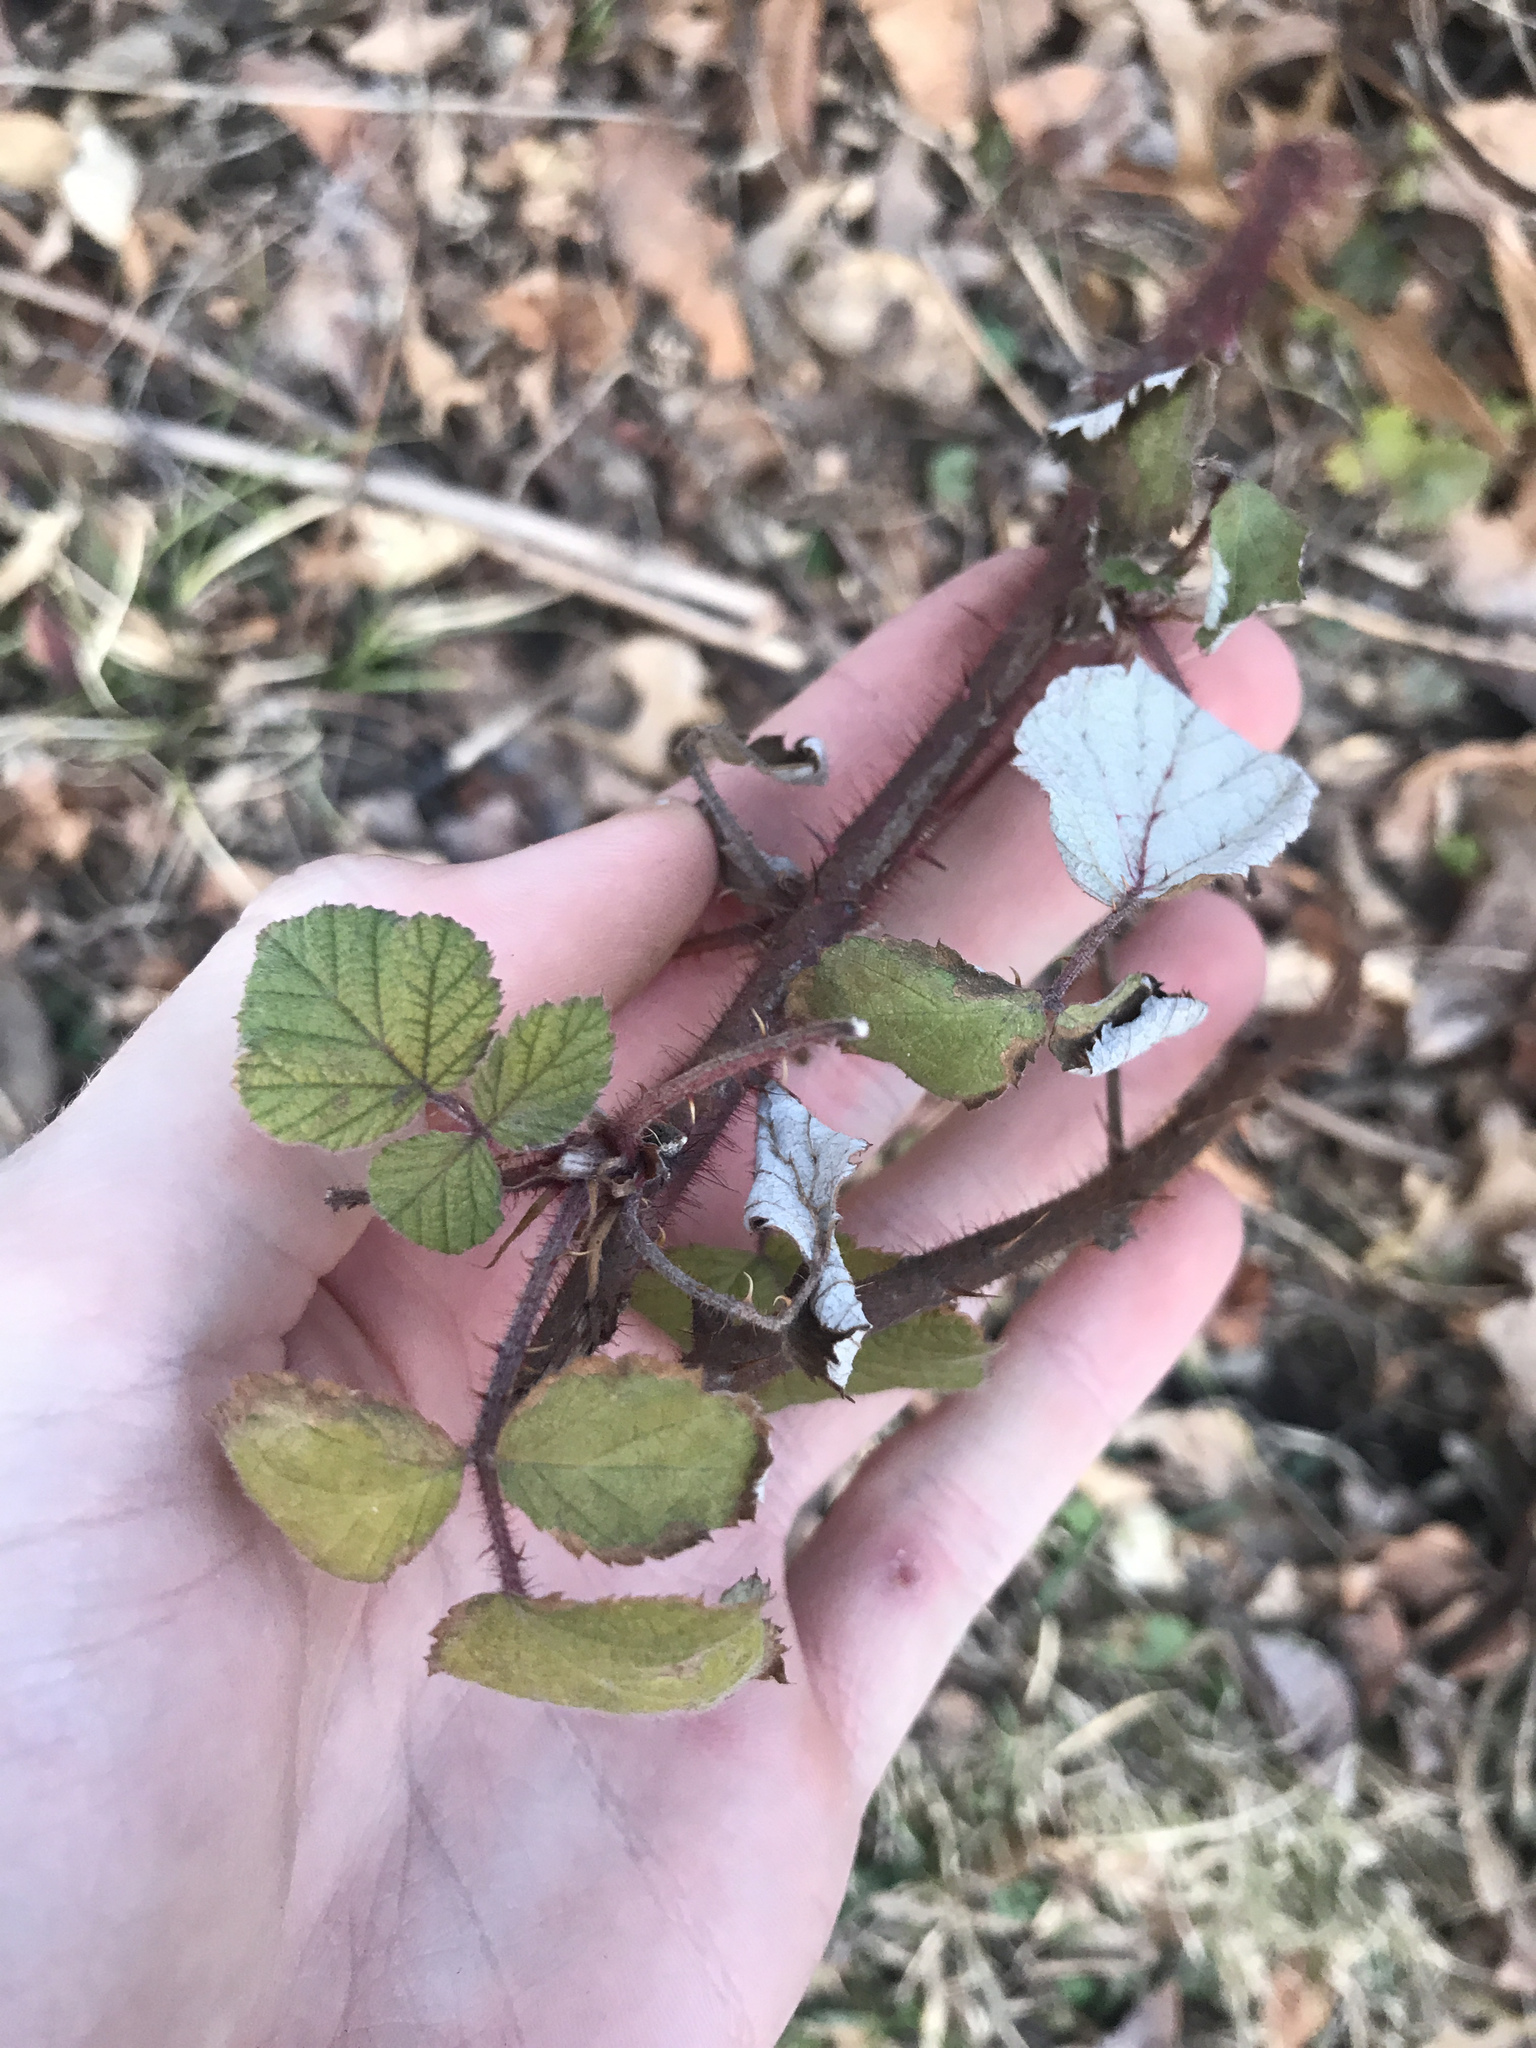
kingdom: Plantae
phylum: Tracheophyta
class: Magnoliopsida
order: Rosales
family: Rosaceae
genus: Rubus
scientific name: Rubus phoenicolasius
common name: Japanese wineberry
